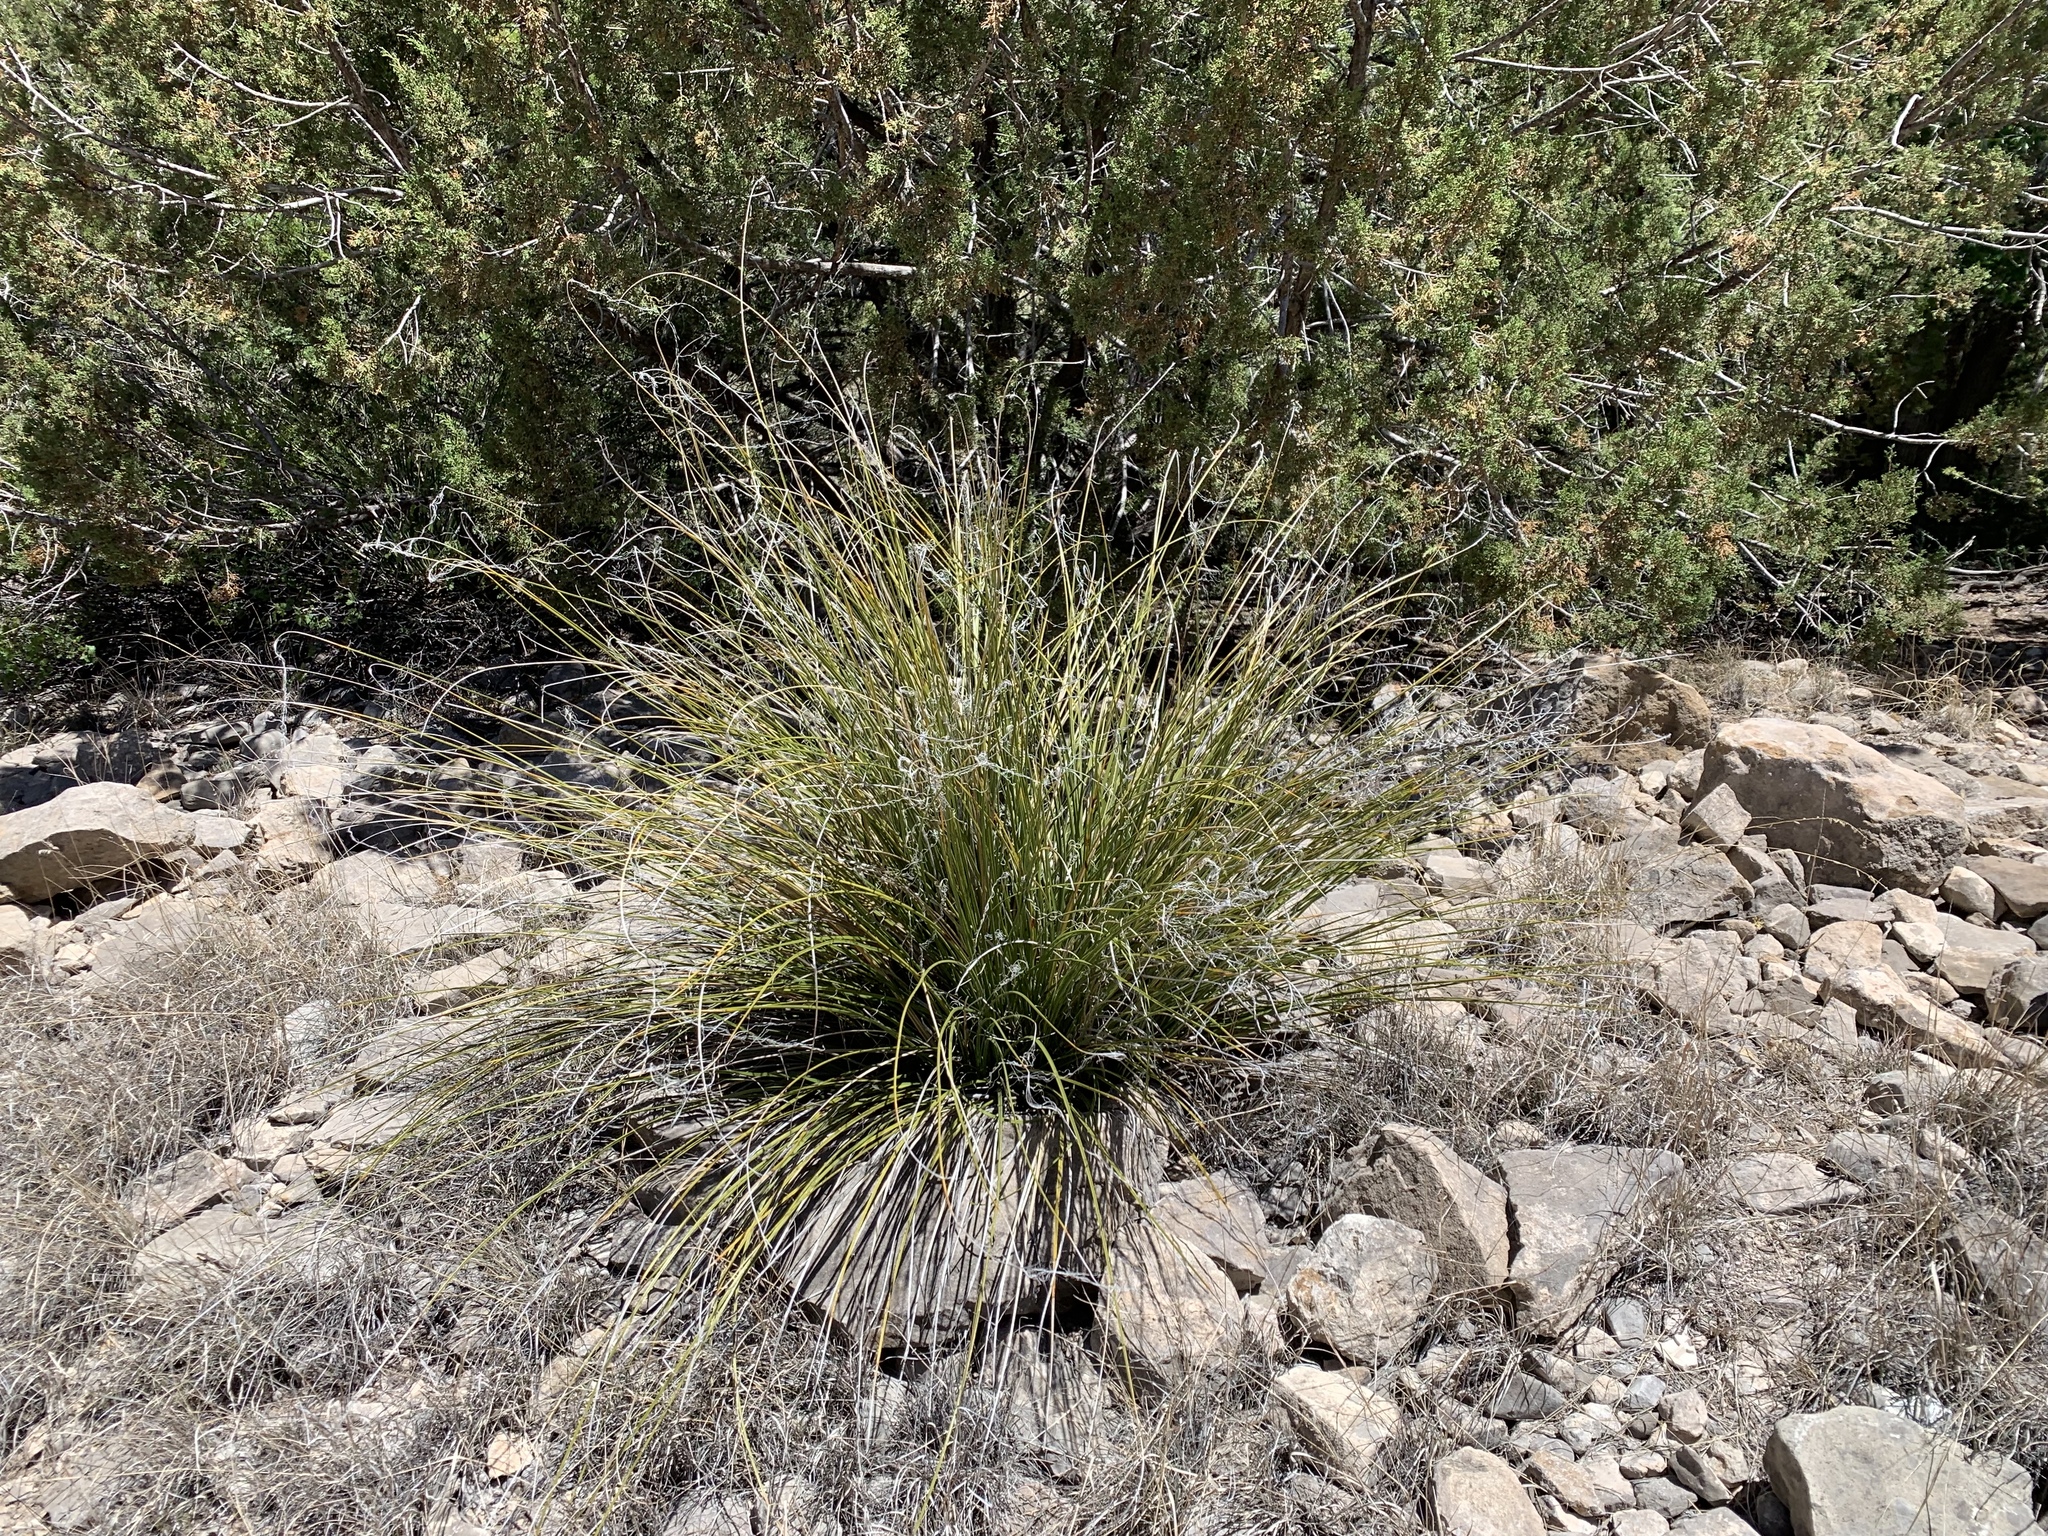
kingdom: Plantae
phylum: Tracheophyta
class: Liliopsida
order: Asparagales
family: Asparagaceae
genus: Nolina
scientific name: Nolina microcarpa
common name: Bear-grass
